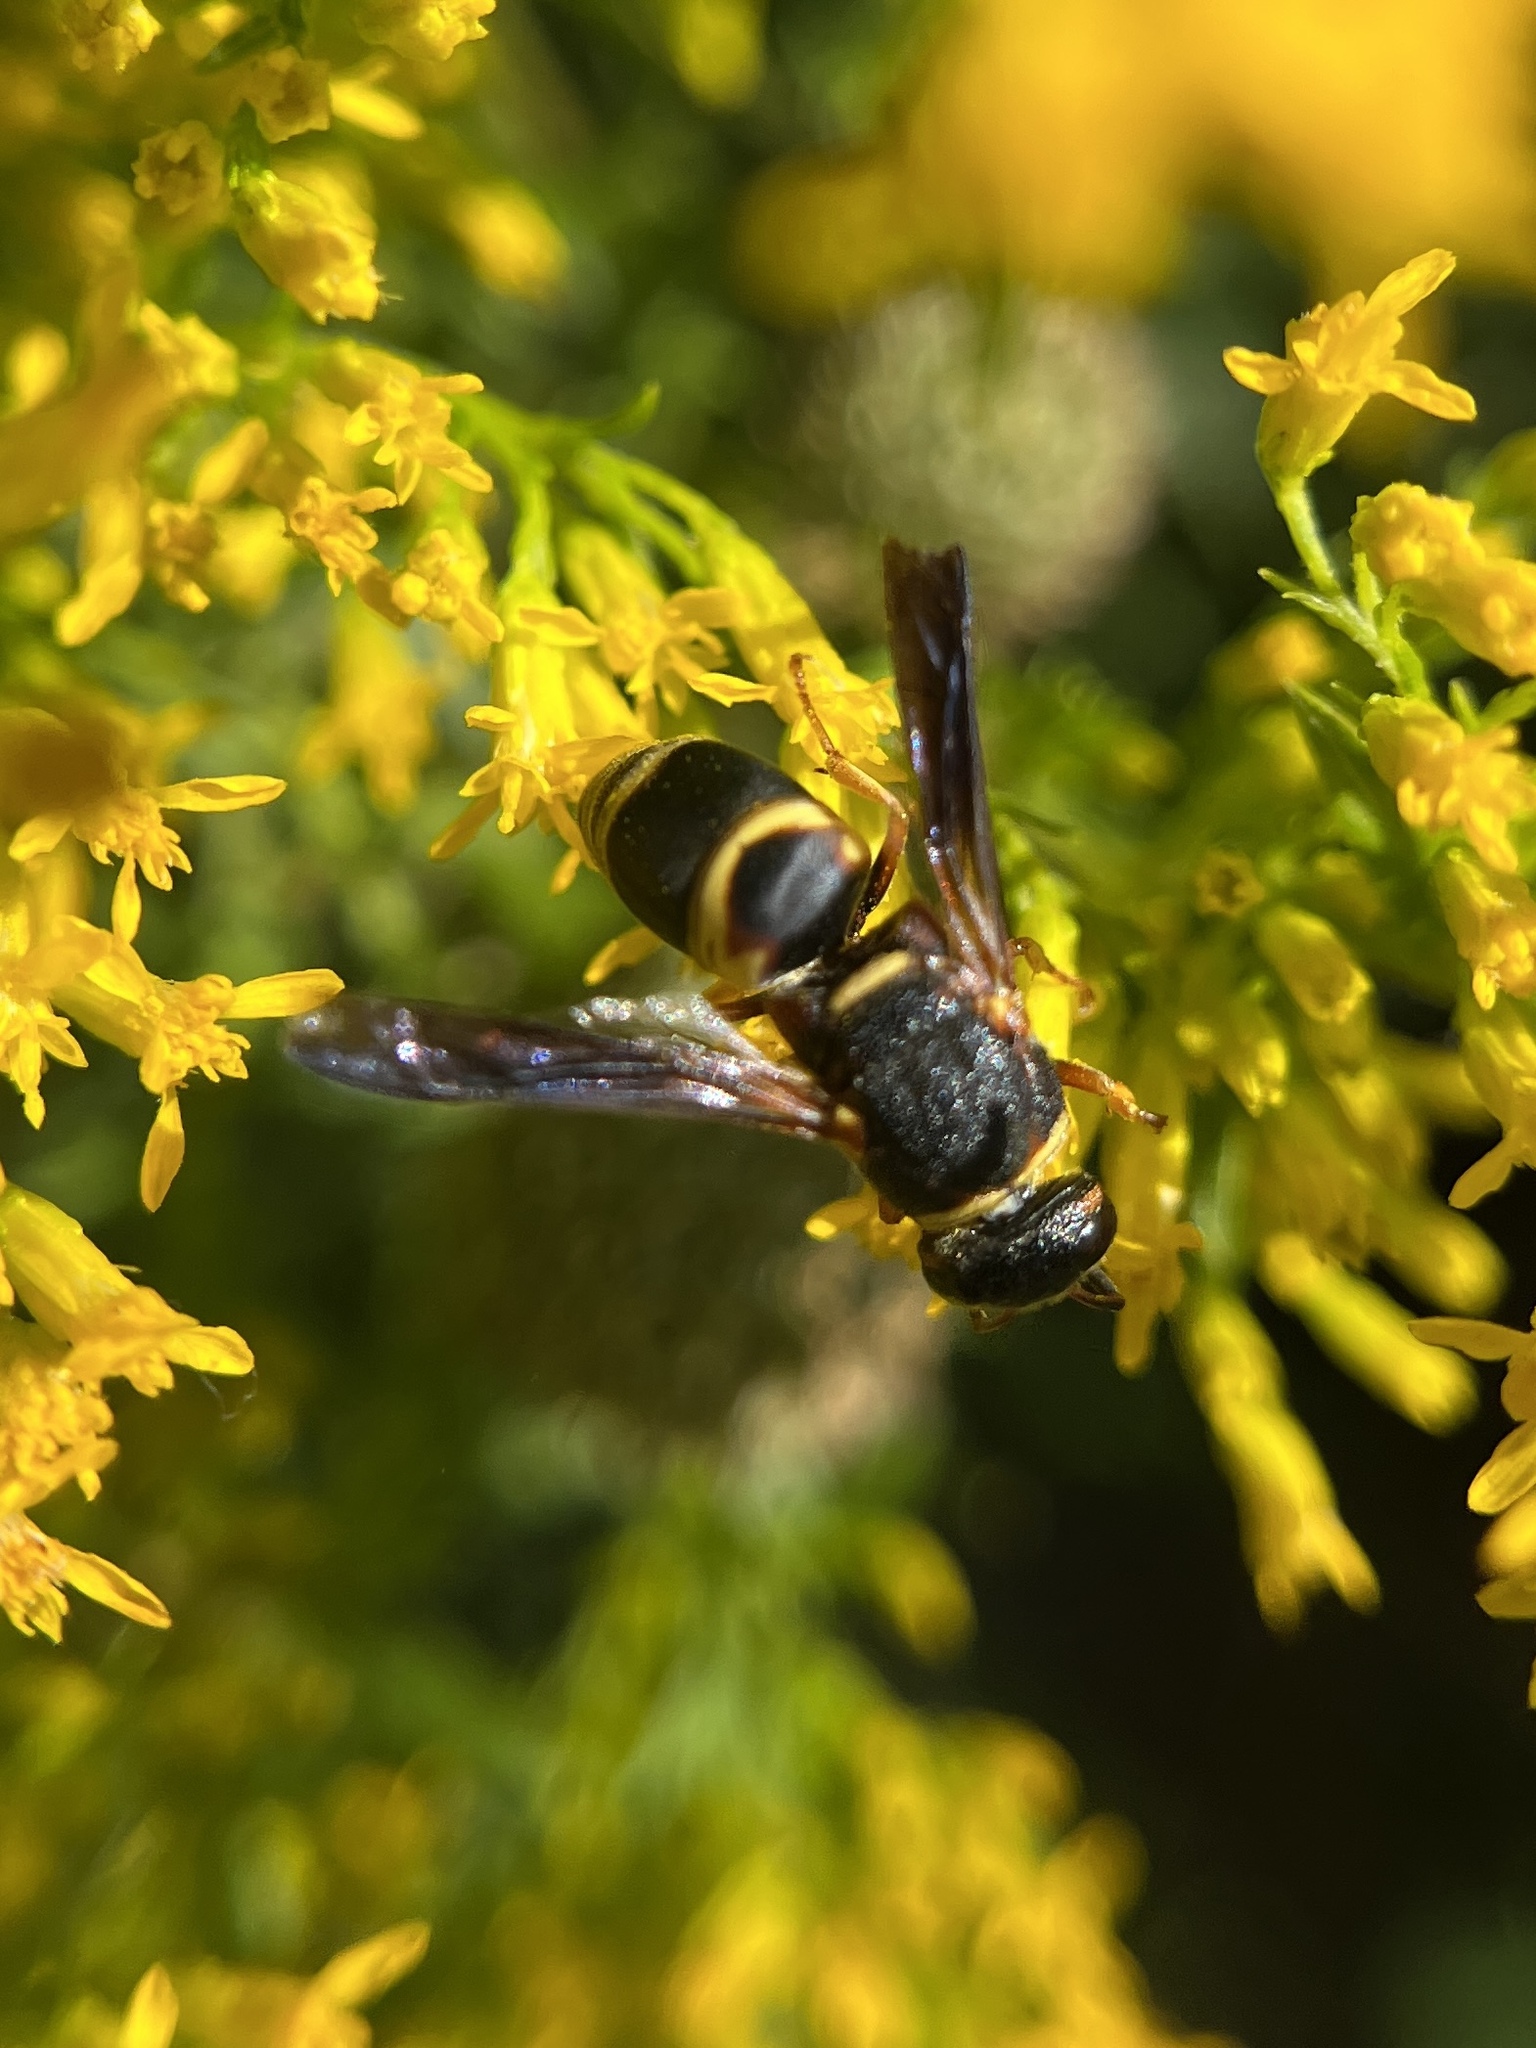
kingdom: Animalia
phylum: Arthropoda
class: Insecta
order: Hymenoptera
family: Eumenidae
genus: Euodynerus
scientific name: Euodynerus hidalgo
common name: Wasp
